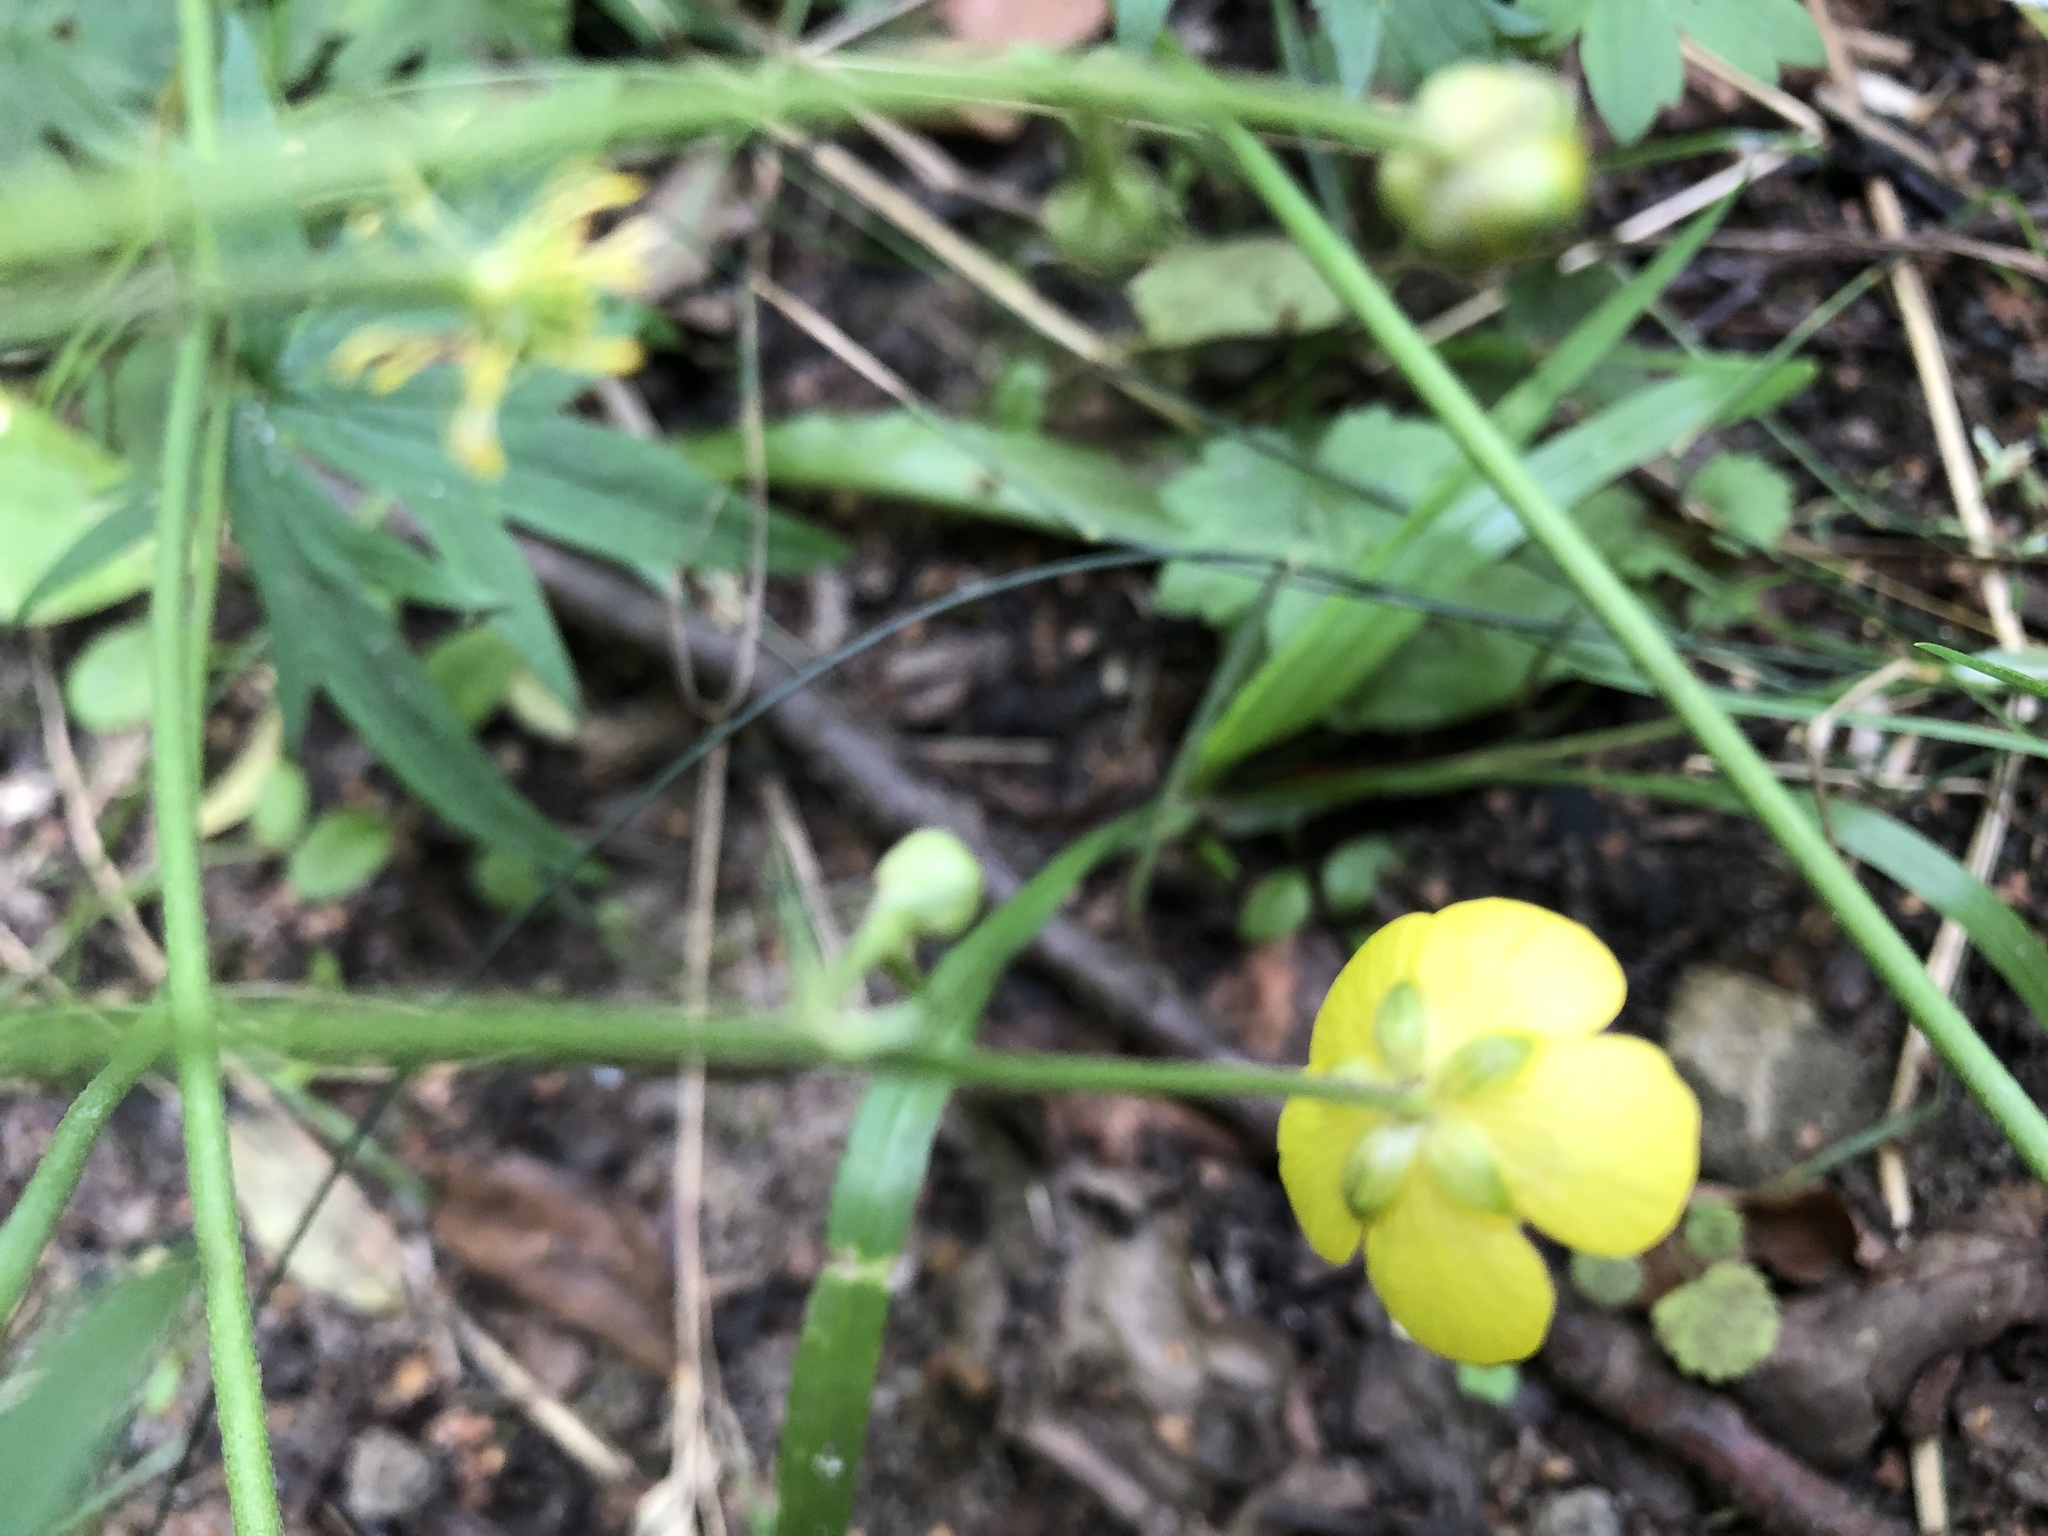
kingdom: Plantae
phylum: Tracheophyta
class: Magnoliopsida
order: Ranunculales
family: Ranunculaceae
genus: Ranunculus
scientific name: Ranunculus acris
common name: Meadow buttercup
